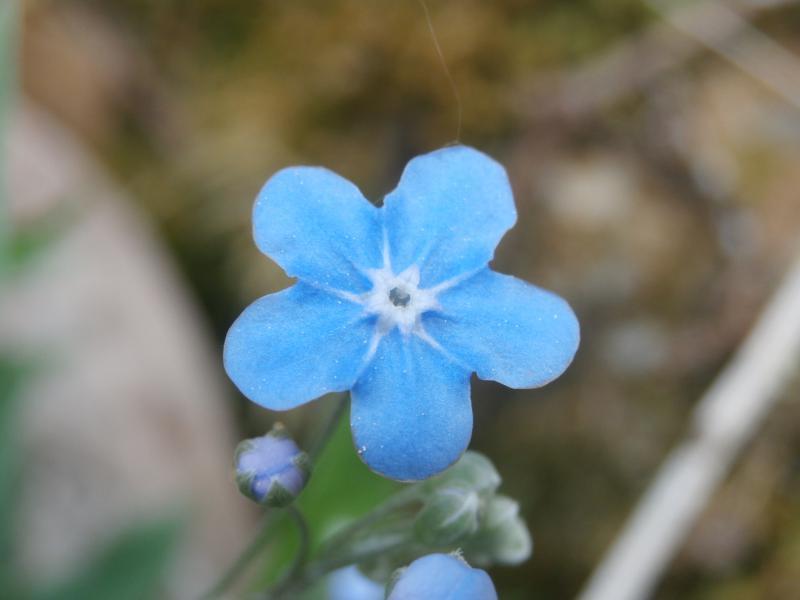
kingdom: Plantae
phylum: Tracheophyta
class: Magnoliopsida
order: Boraginales
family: Boraginaceae
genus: Omphalodes
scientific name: Omphalodes nitida
